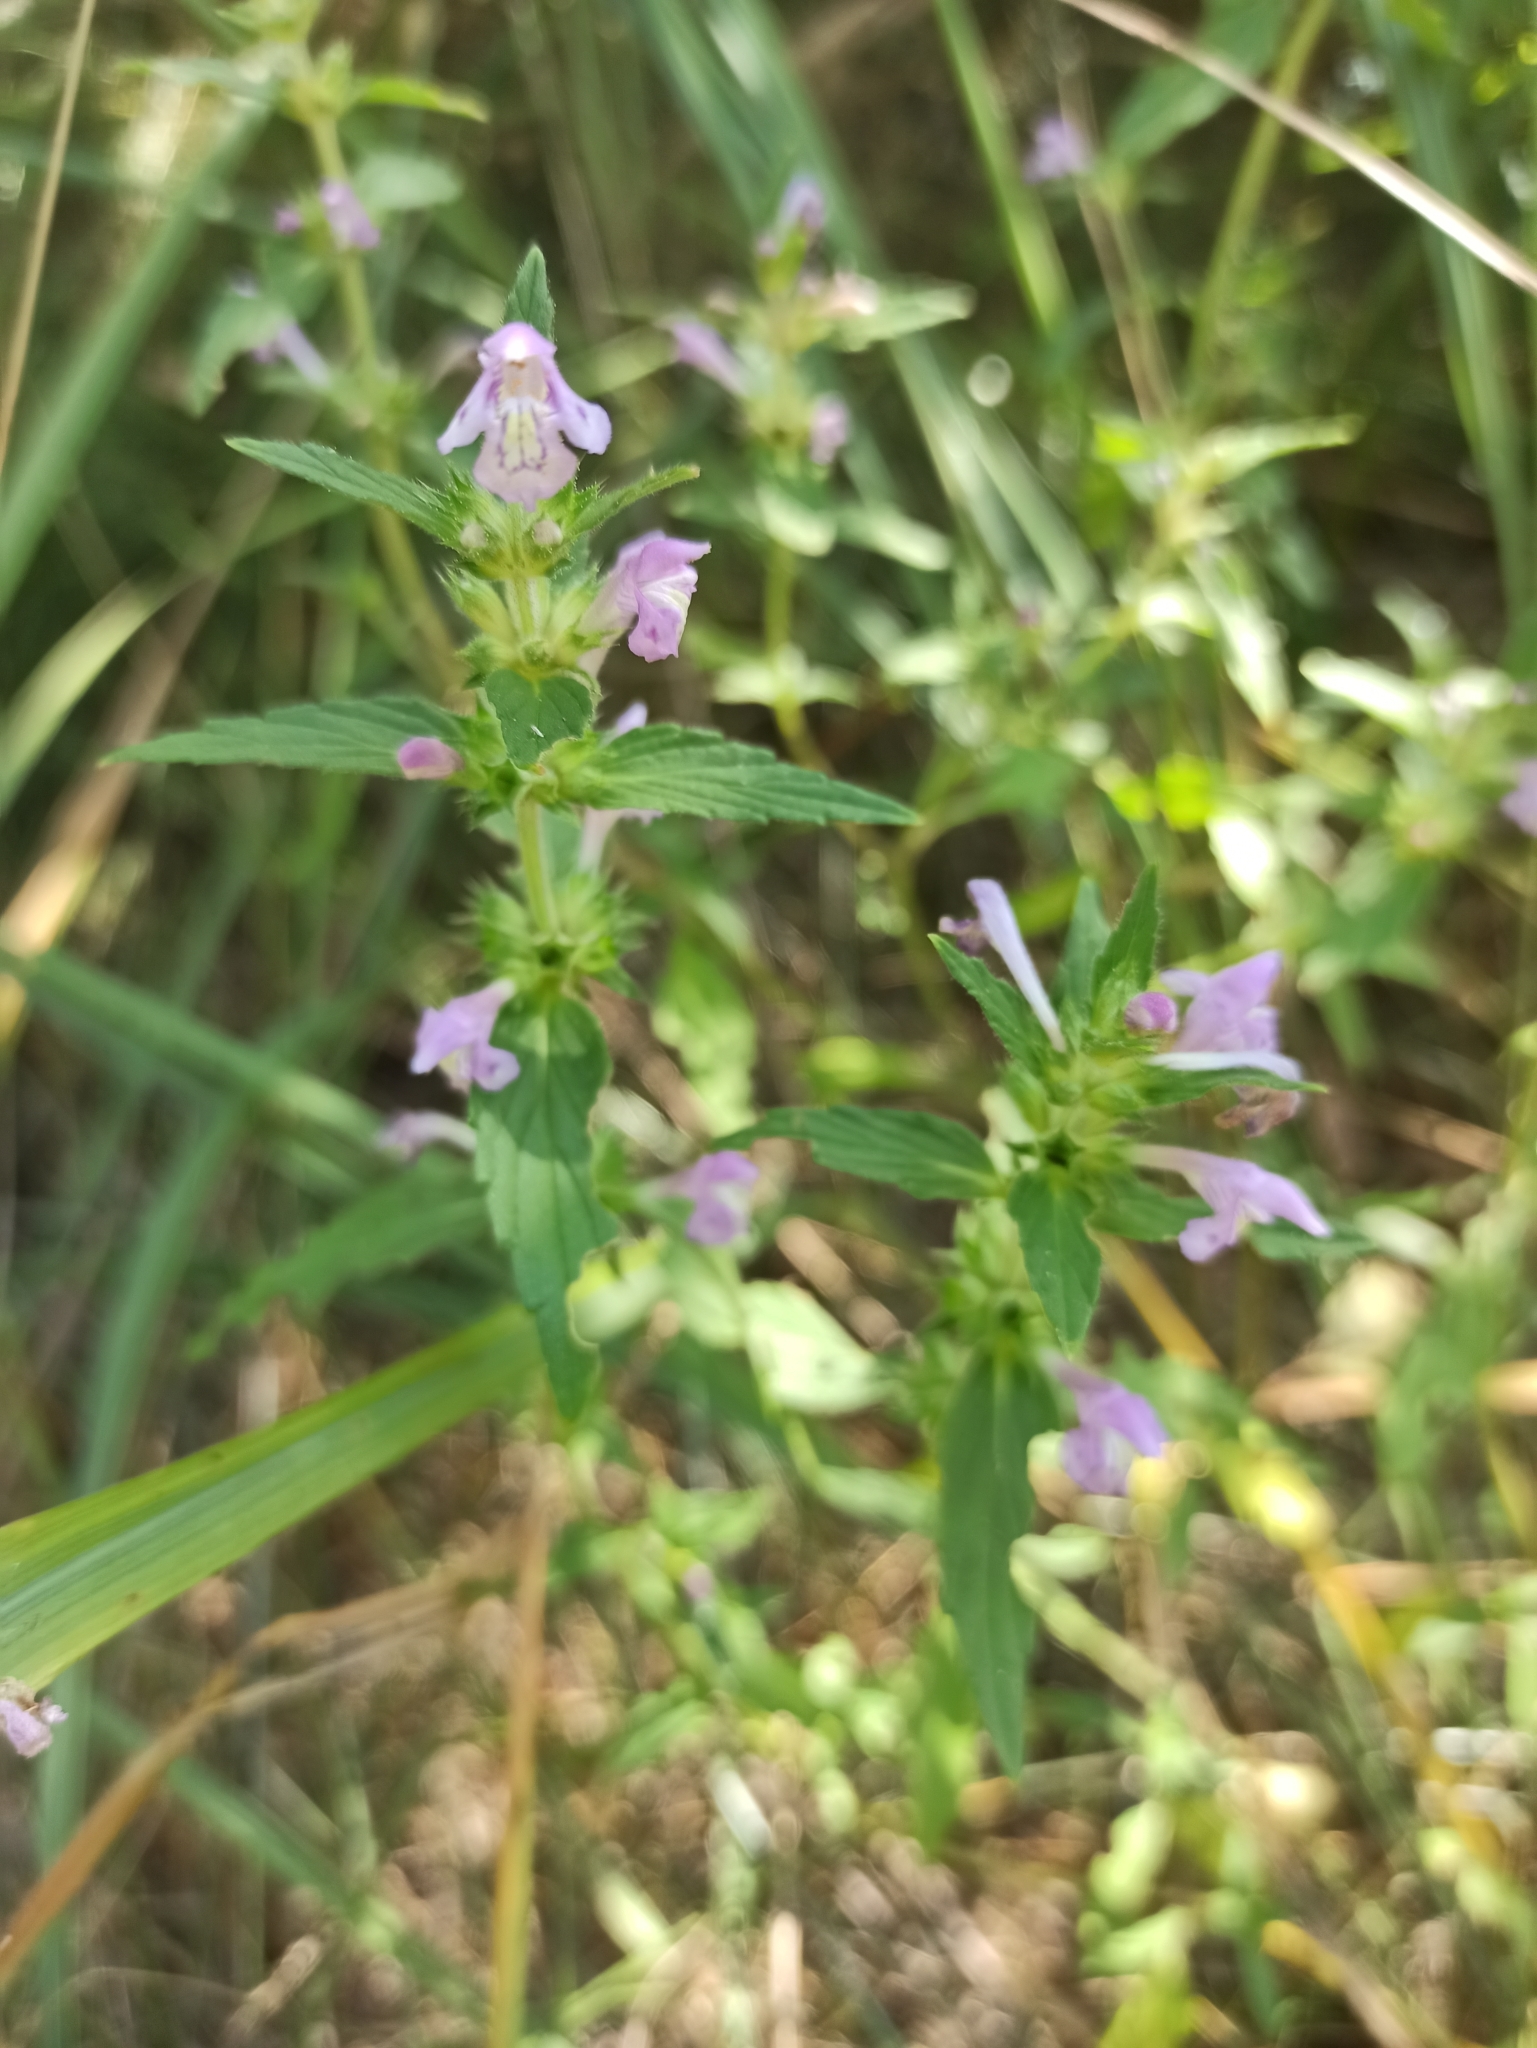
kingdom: Plantae
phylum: Tracheophyta
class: Magnoliopsida
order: Lamiales
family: Lamiaceae
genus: Galeopsis
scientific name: Galeopsis ladanum
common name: Broad-leaved hemp-nettle
